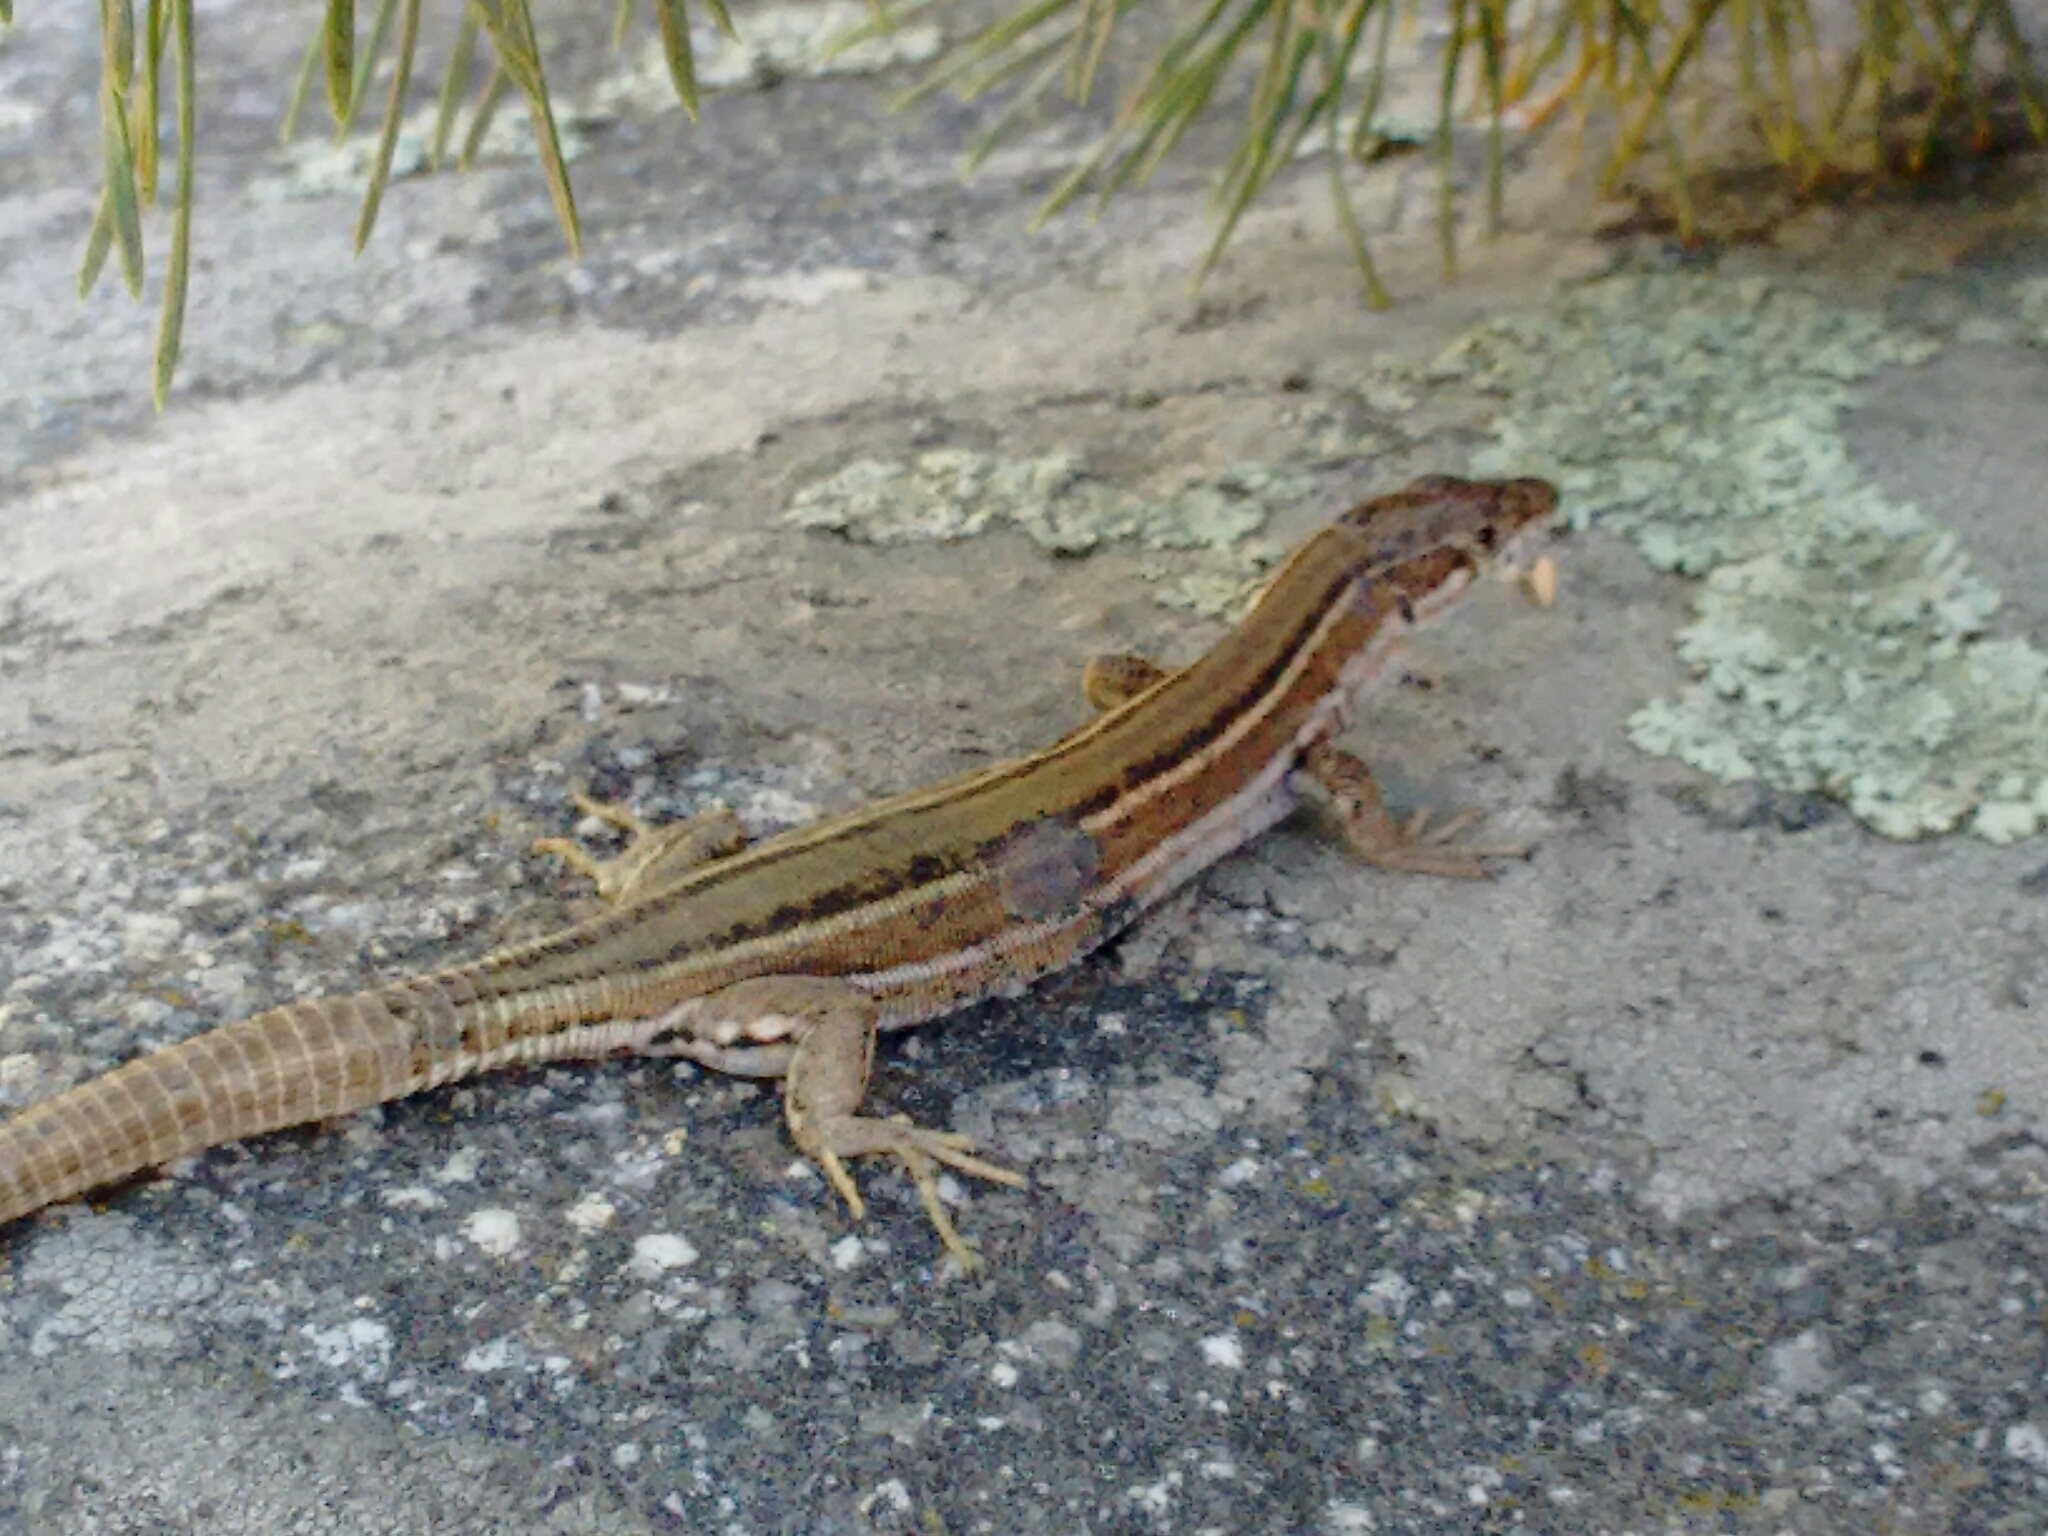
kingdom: Animalia
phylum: Chordata
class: Squamata
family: Lacertidae
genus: Podarcis
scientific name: Podarcis guadarramae
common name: Guadarrama wall lizard
